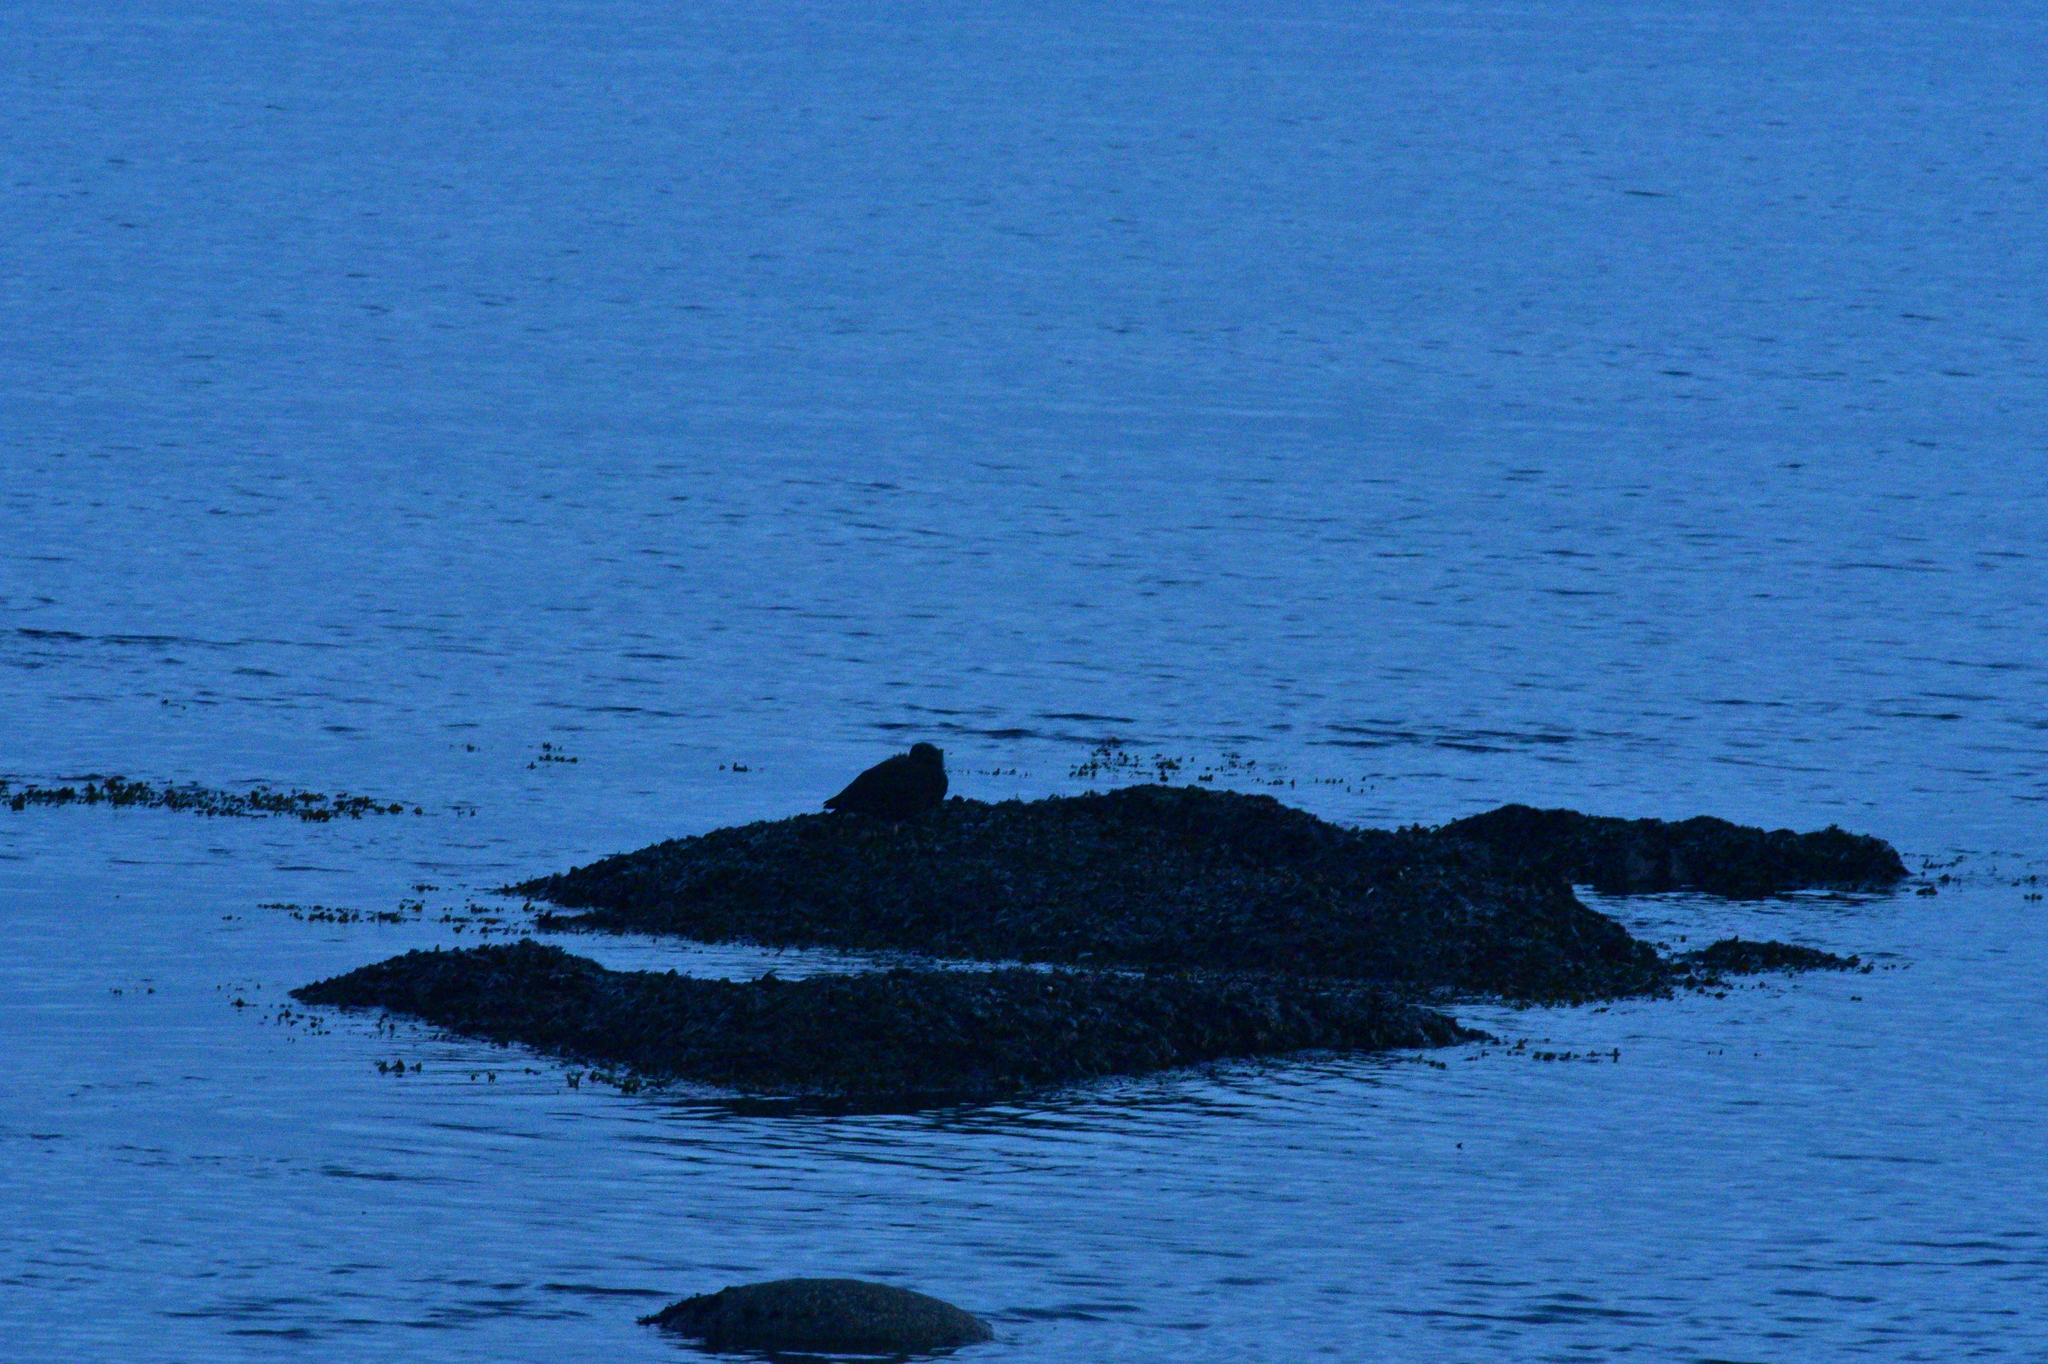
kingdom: Animalia
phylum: Chordata
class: Aves
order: Charadriiformes
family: Haematopodidae
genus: Haematopus
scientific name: Haematopus bachmani
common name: Black oystercatcher
